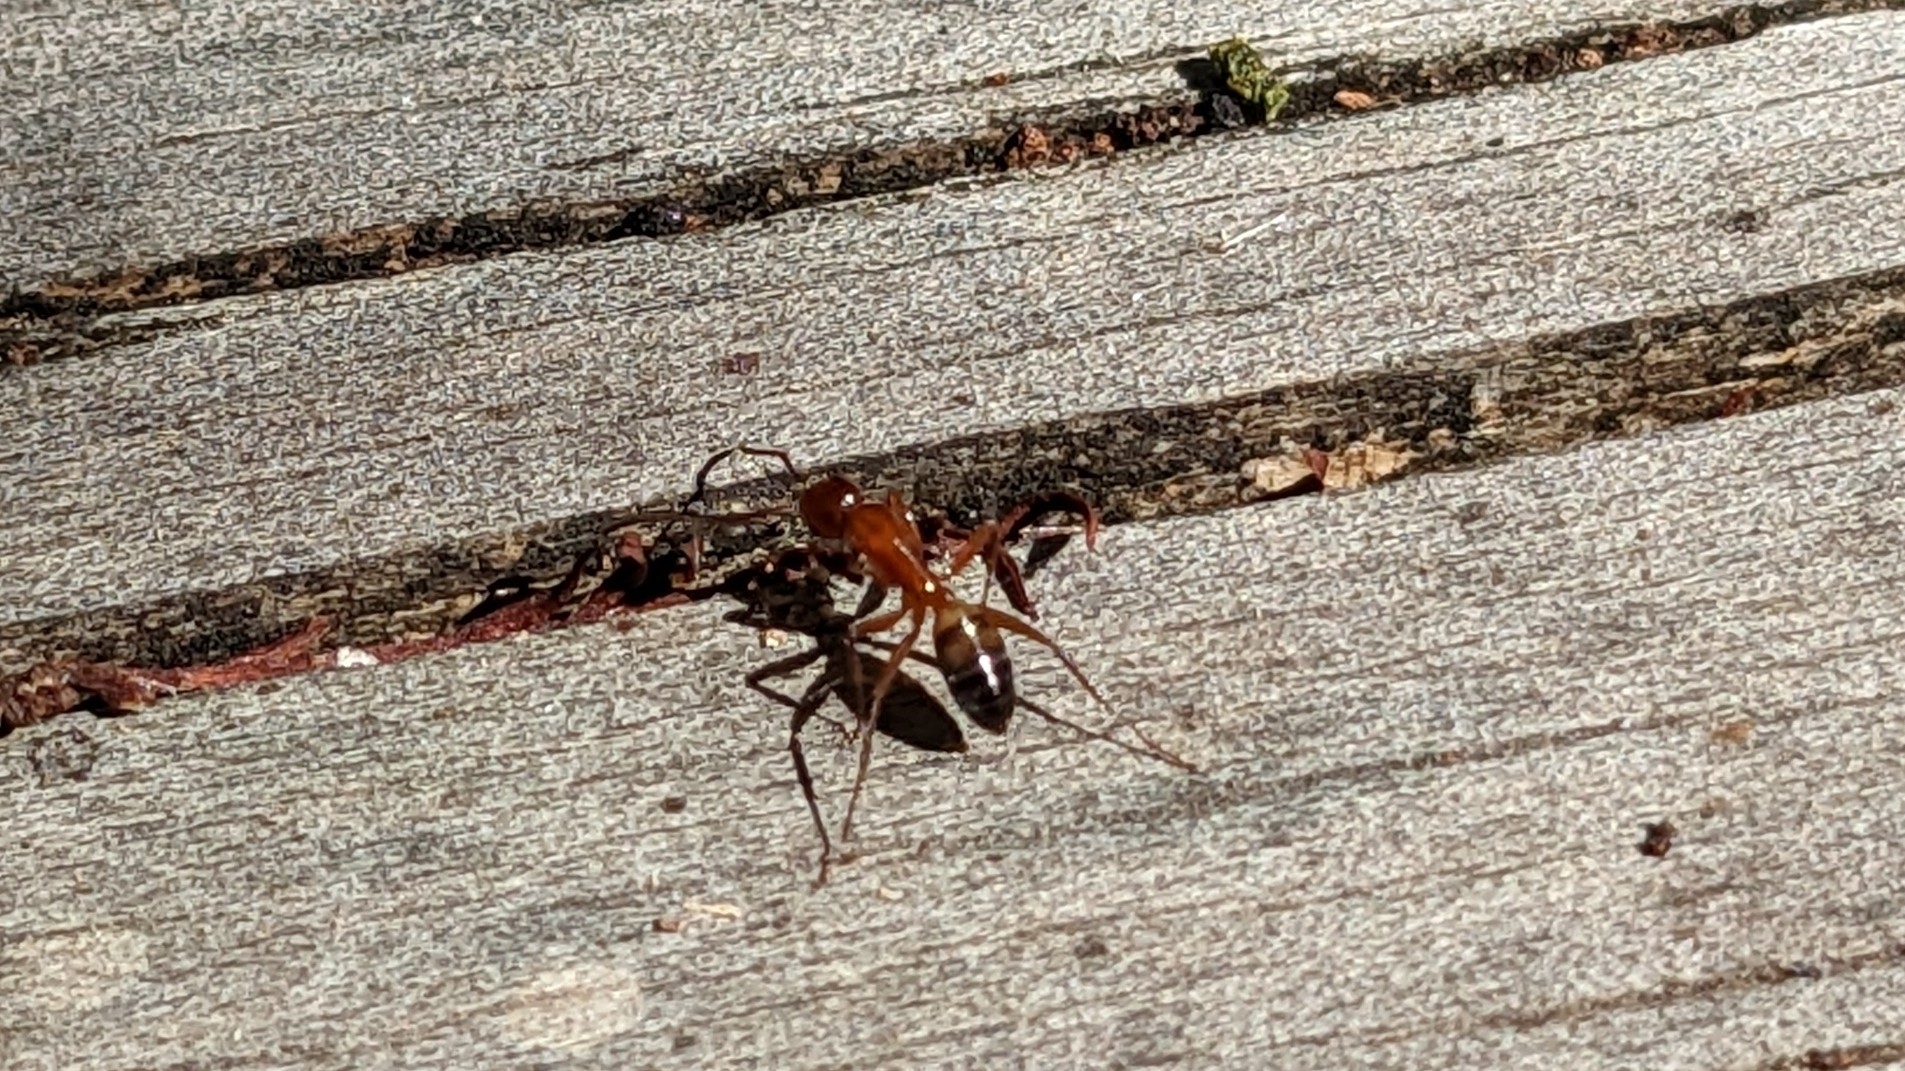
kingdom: Animalia
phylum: Arthropoda
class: Insecta
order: Hymenoptera
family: Formicidae
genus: Camponotus
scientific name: Camponotus snellingi
